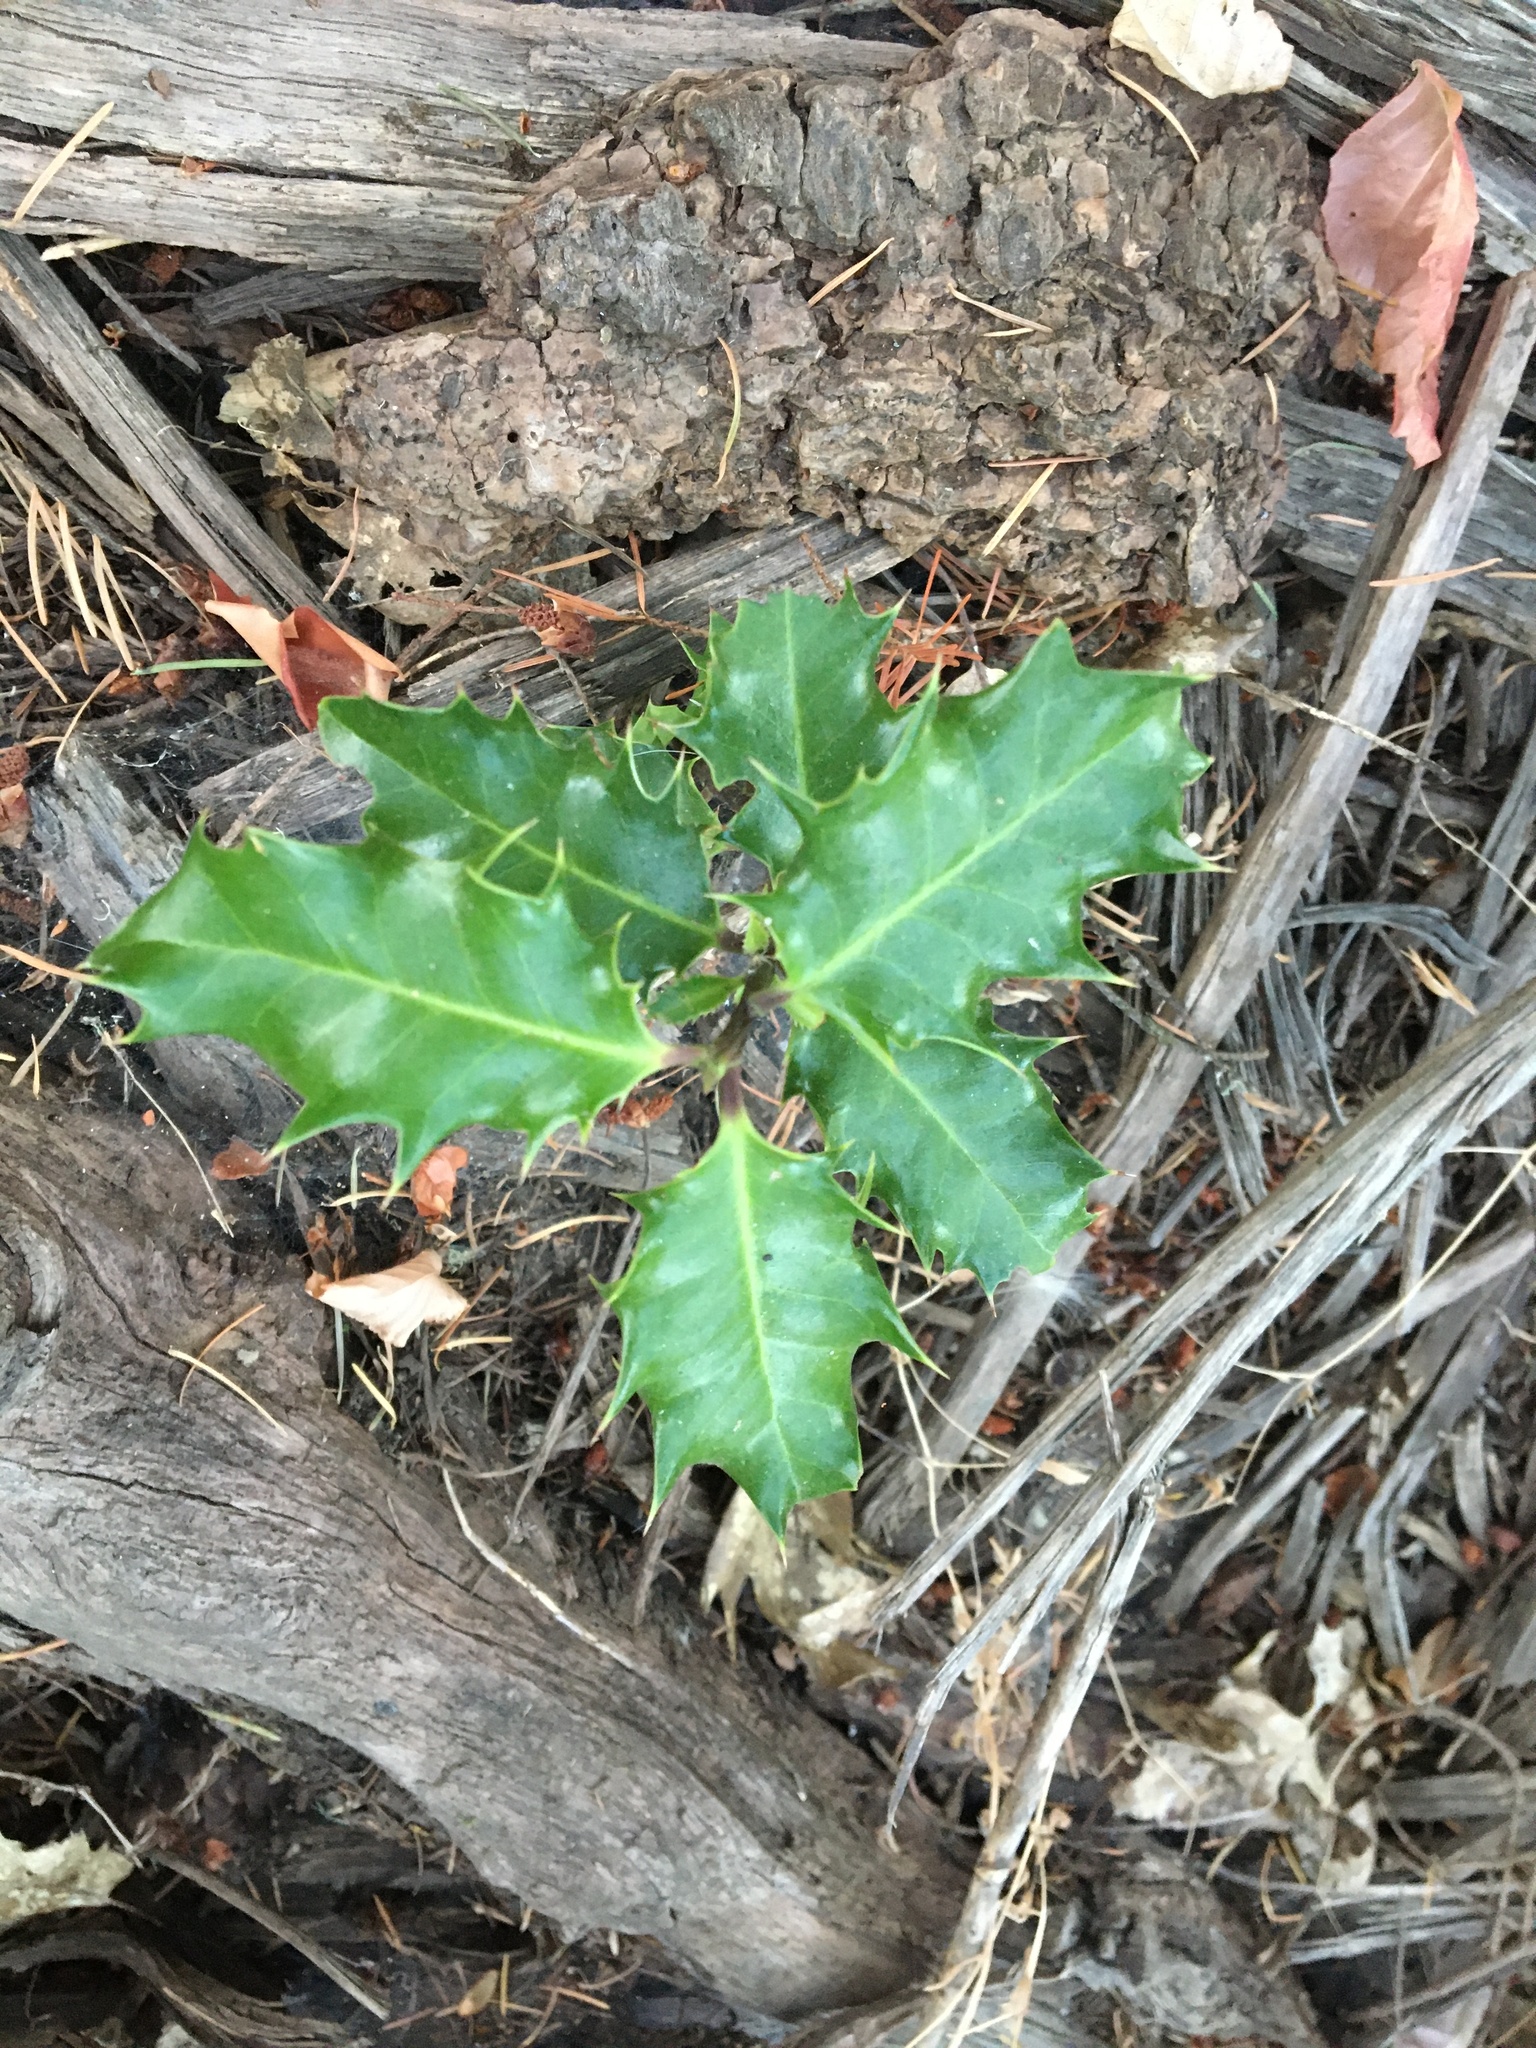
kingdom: Plantae
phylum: Tracheophyta
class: Magnoliopsida
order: Aquifoliales
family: Aquifoliaceae
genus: Ilex
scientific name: Ilex aquifolium
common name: English holly
